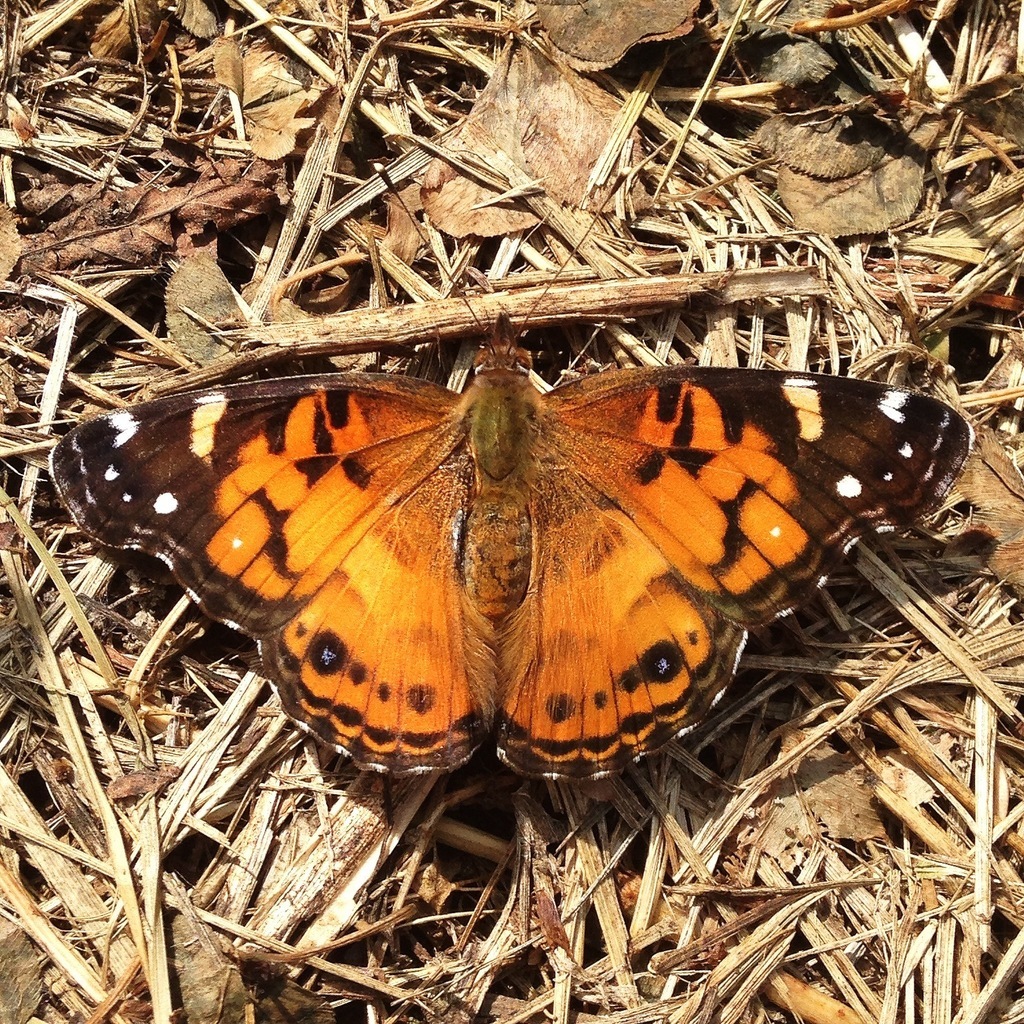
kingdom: Animalia
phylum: Arthropoda
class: Insecta
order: Lepidoptera
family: Nymphalidae
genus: Vanessa
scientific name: Vanessa virginiensis
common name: American lady
